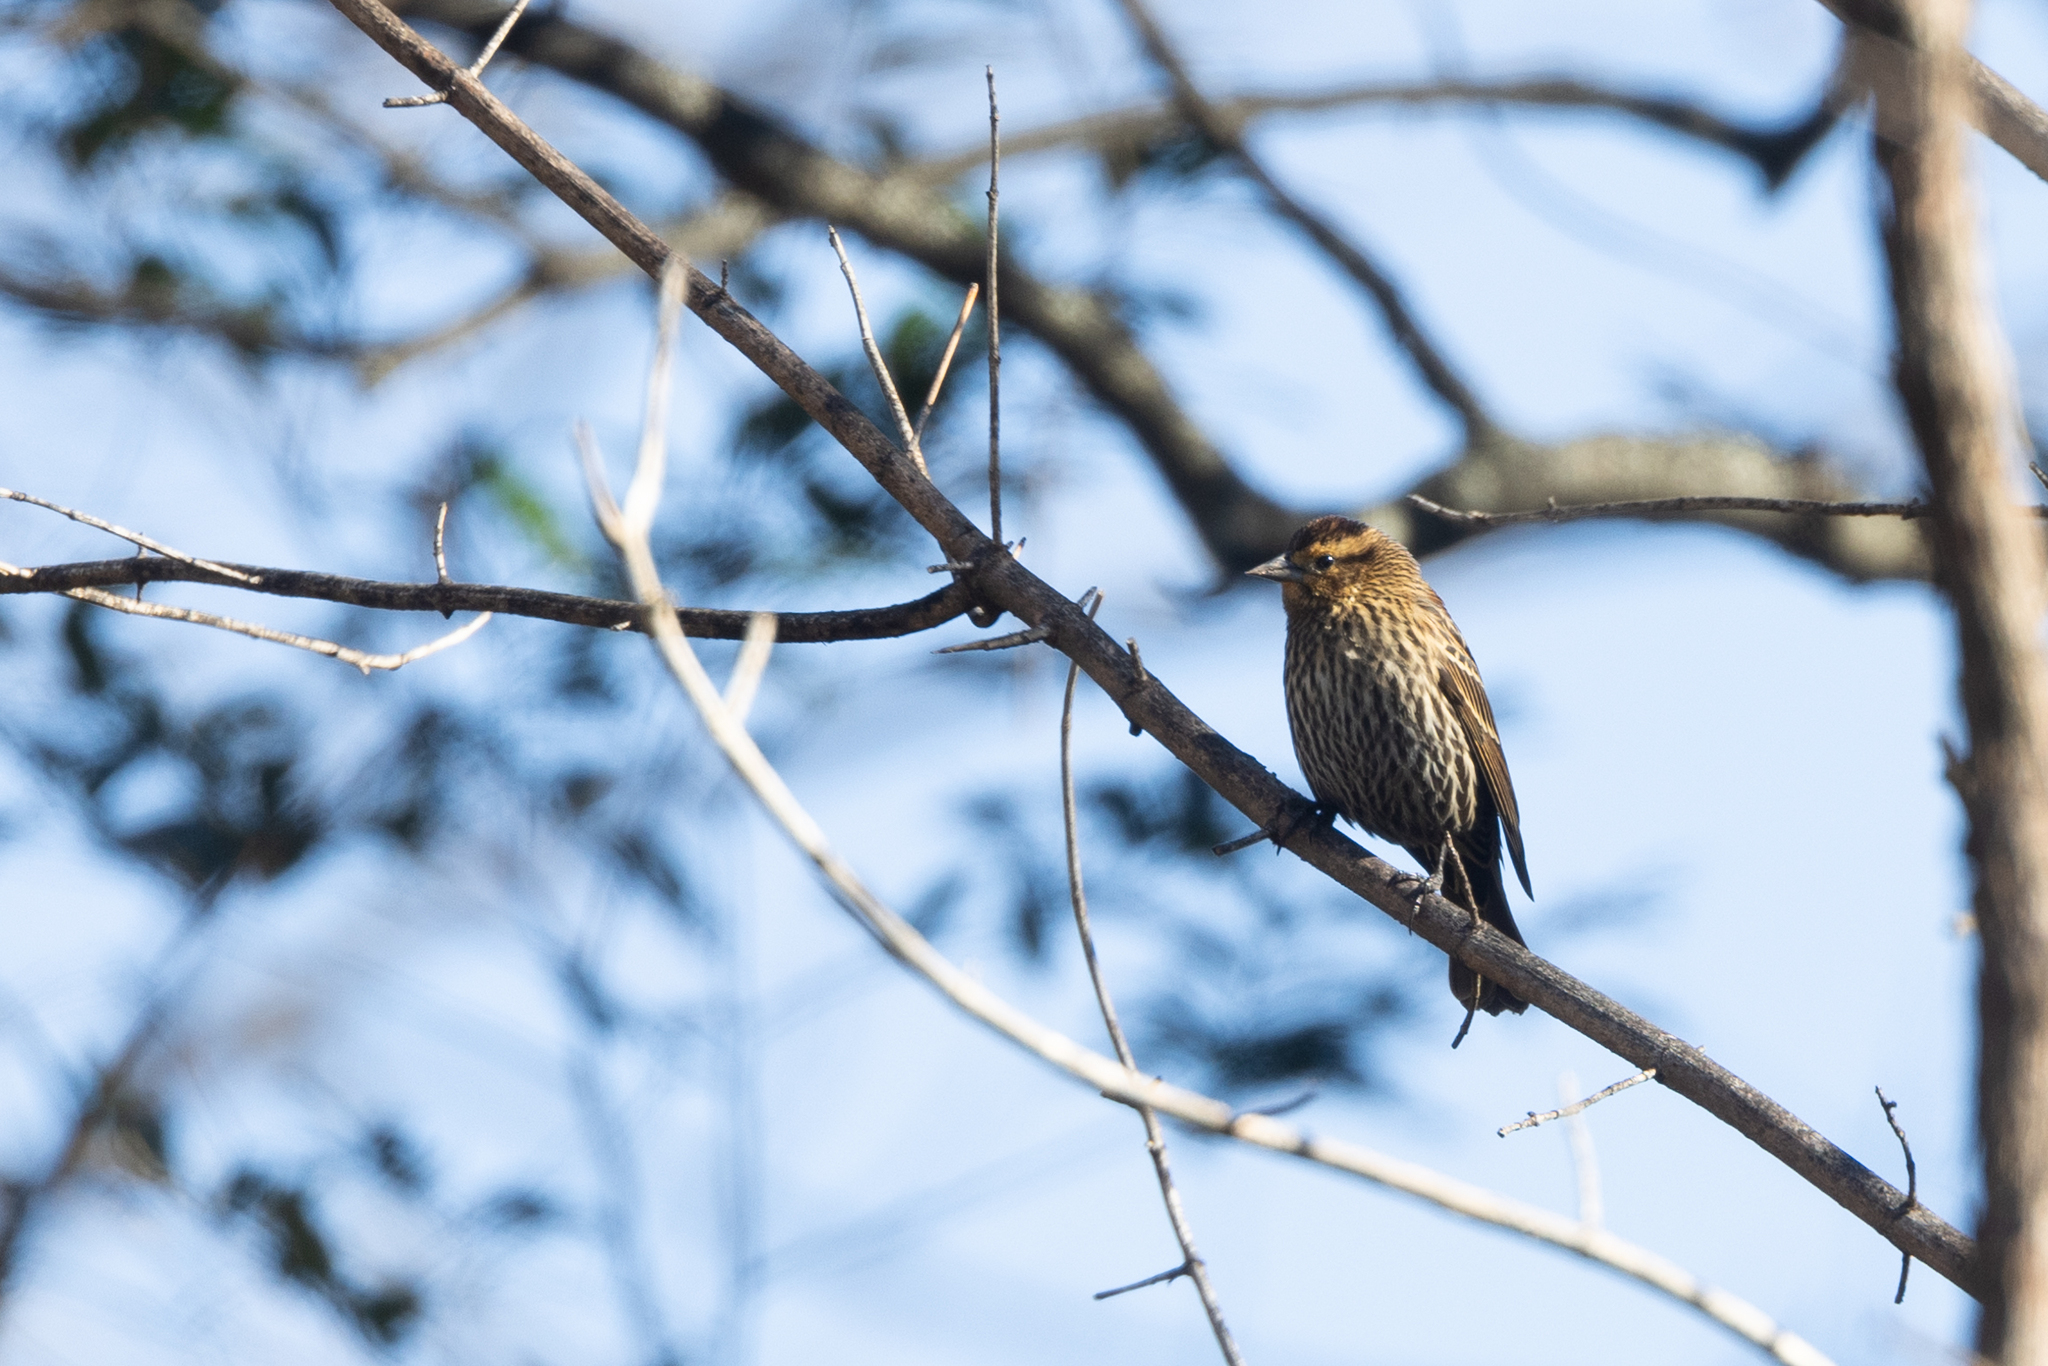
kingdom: Animalia
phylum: Chordata
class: Aves
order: Passeriformes
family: Icteridae
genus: Agelaius
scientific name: Agelaius phoeniceus
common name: Red-winged blackbird
